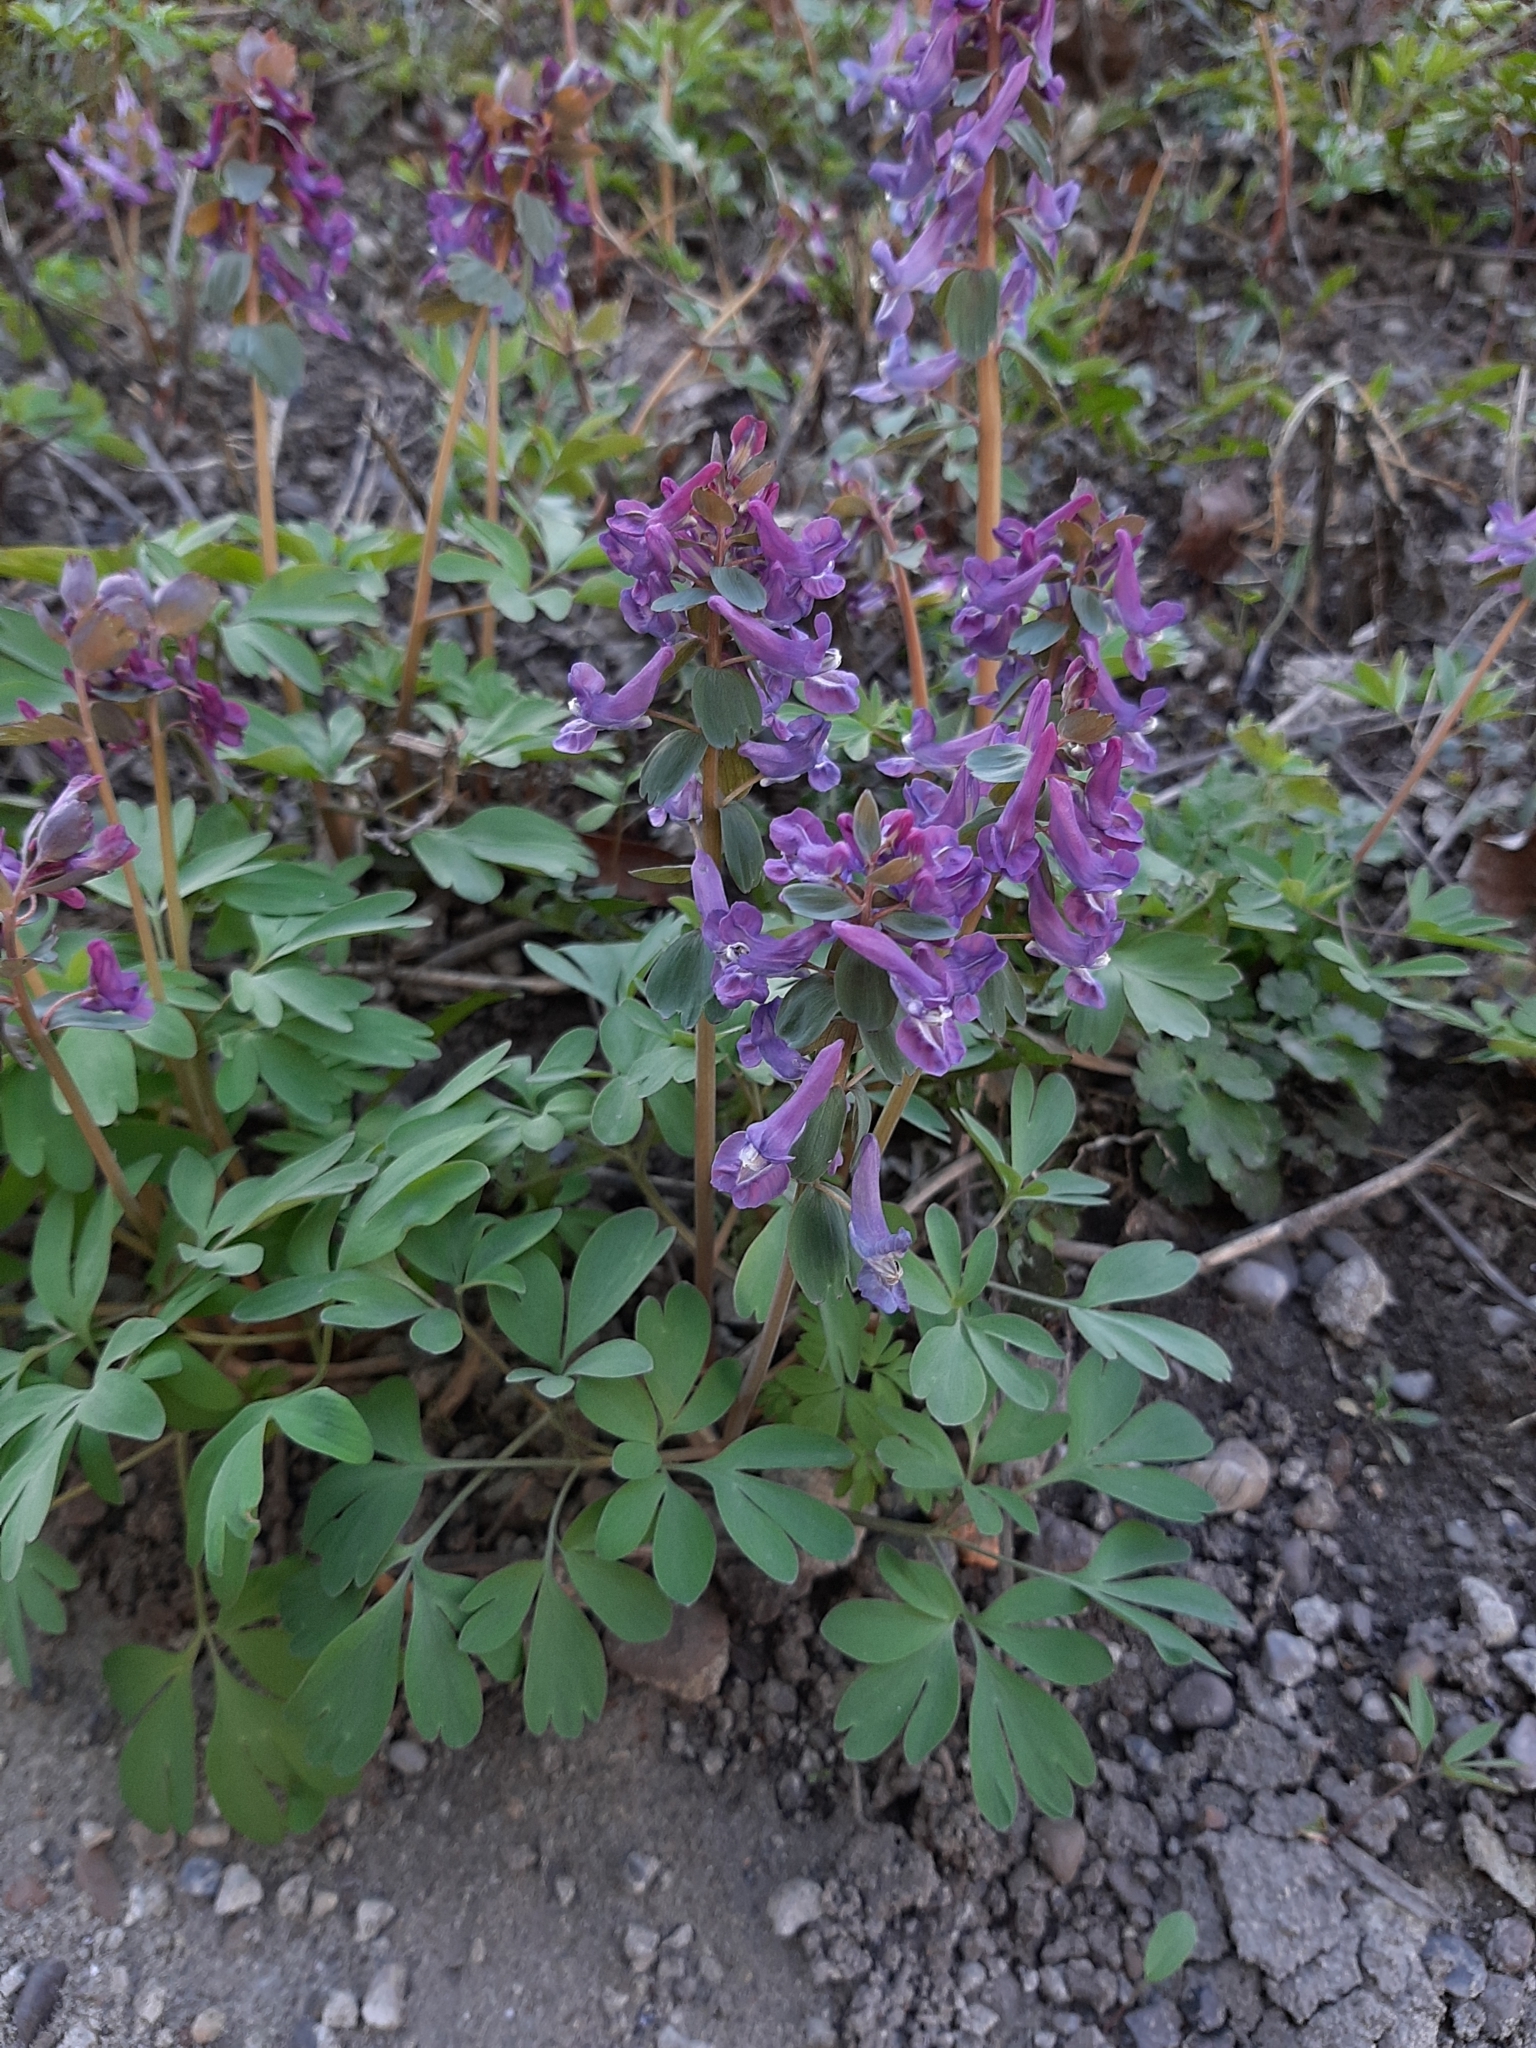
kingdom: Plantae
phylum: Tracheophyta
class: Magnoliopsida
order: Ranunculales
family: Papaveraceae
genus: Corydalis
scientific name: Corydalis solida
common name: Bird-in-a-bush
